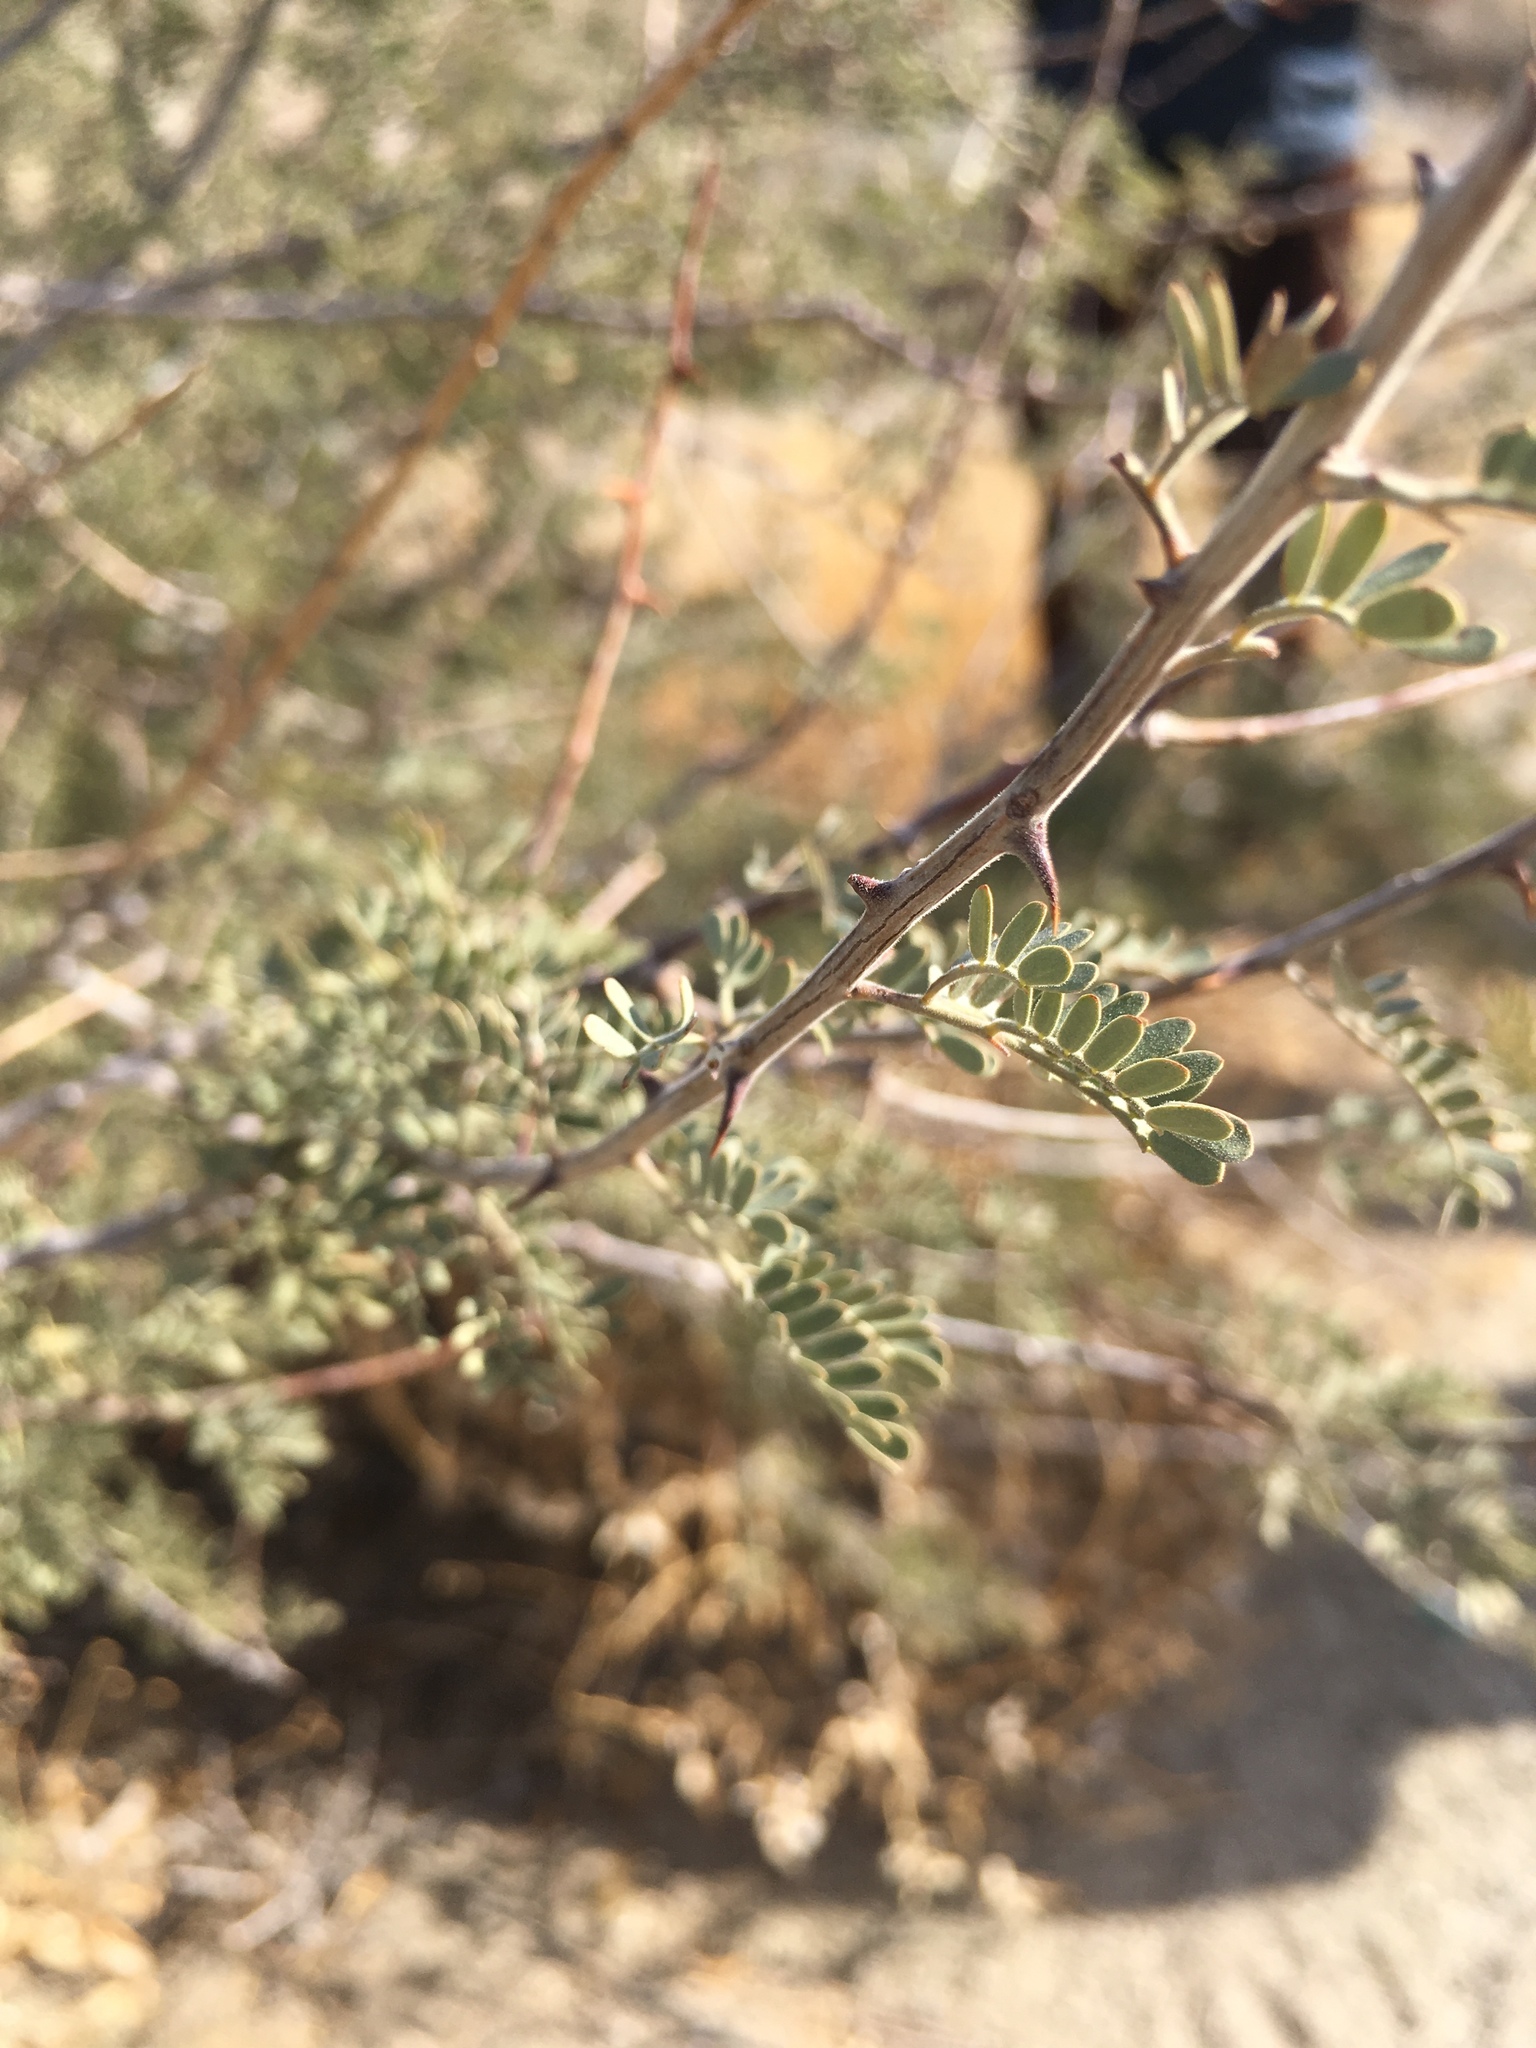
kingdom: Plantae
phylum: Tracheophyta
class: Magnoliopsida
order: Fabales
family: Fabaceae
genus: Senegalia
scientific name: Senegalia greggii
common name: Texas-mimosa
